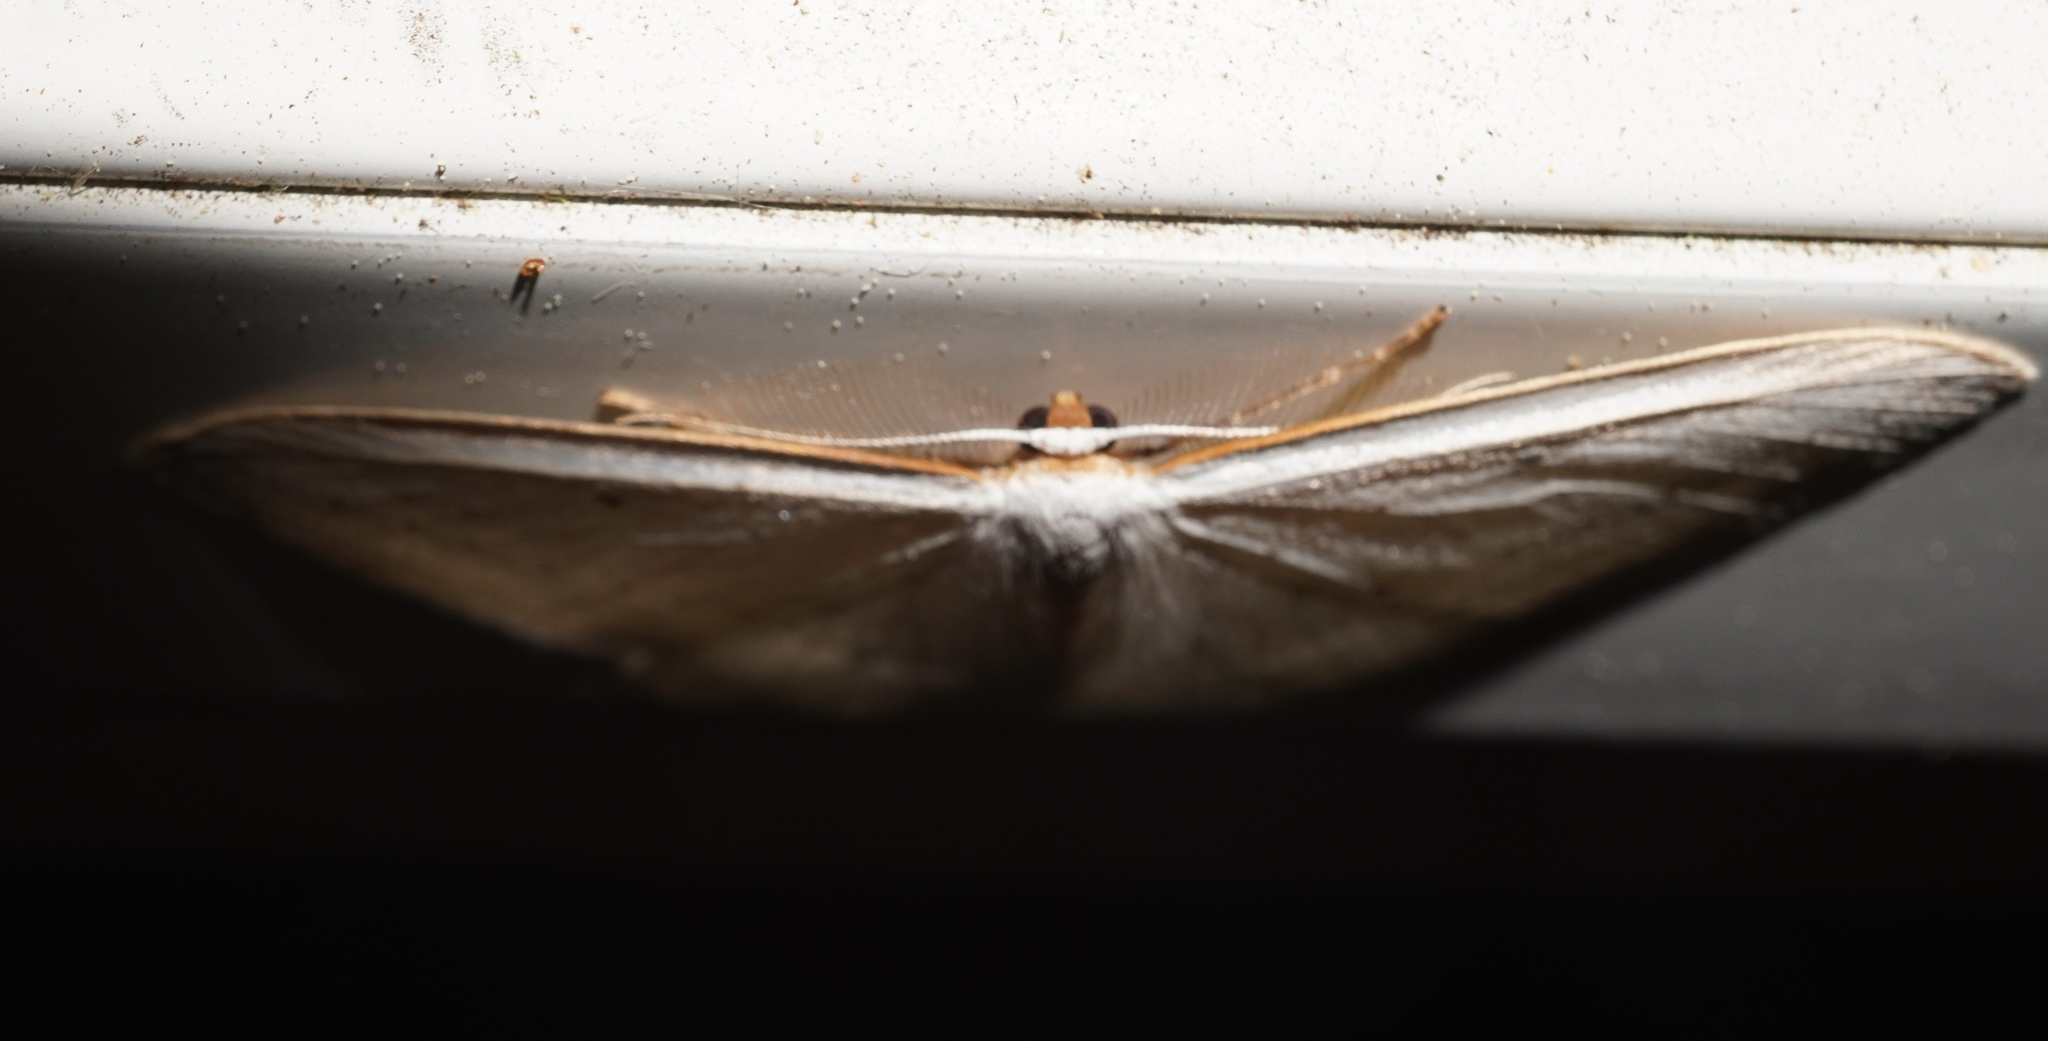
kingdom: Animalia
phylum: Arthropoda
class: Insecta
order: Lepidoptera
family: Geometridae
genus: Orthoclydon
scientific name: Orthoclydon praefectata
